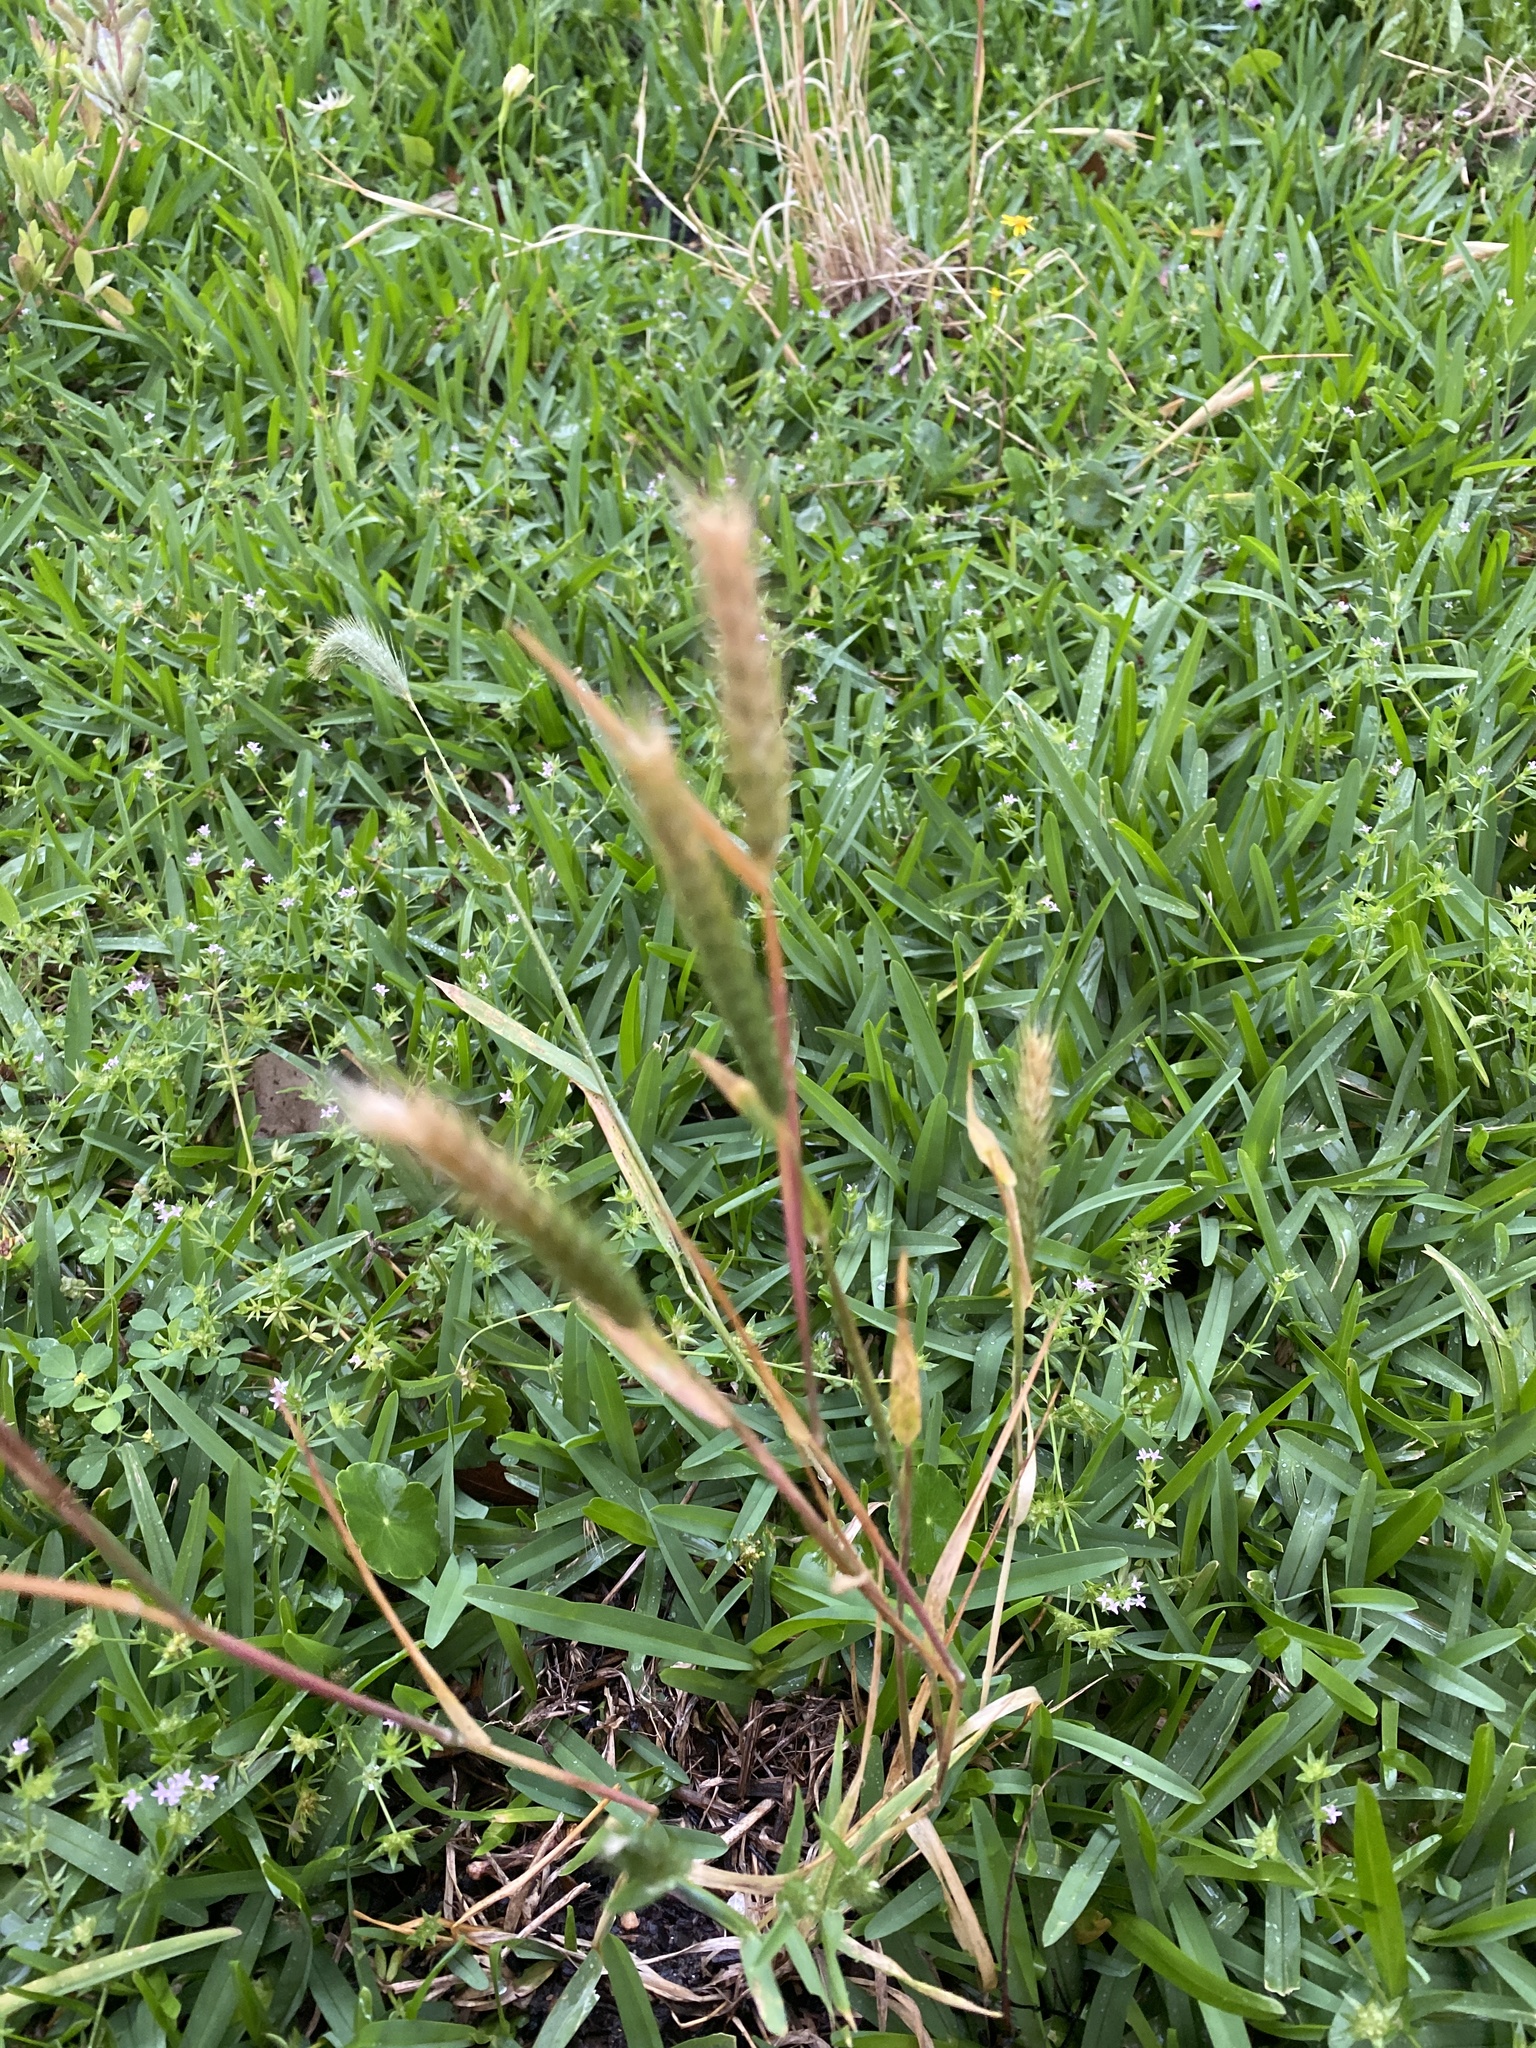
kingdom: Plantae
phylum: Tracheophyta
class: Liliopsida
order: Poales
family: Poaceae
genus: Hordeum
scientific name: Hordeum pusillum
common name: Little barley
